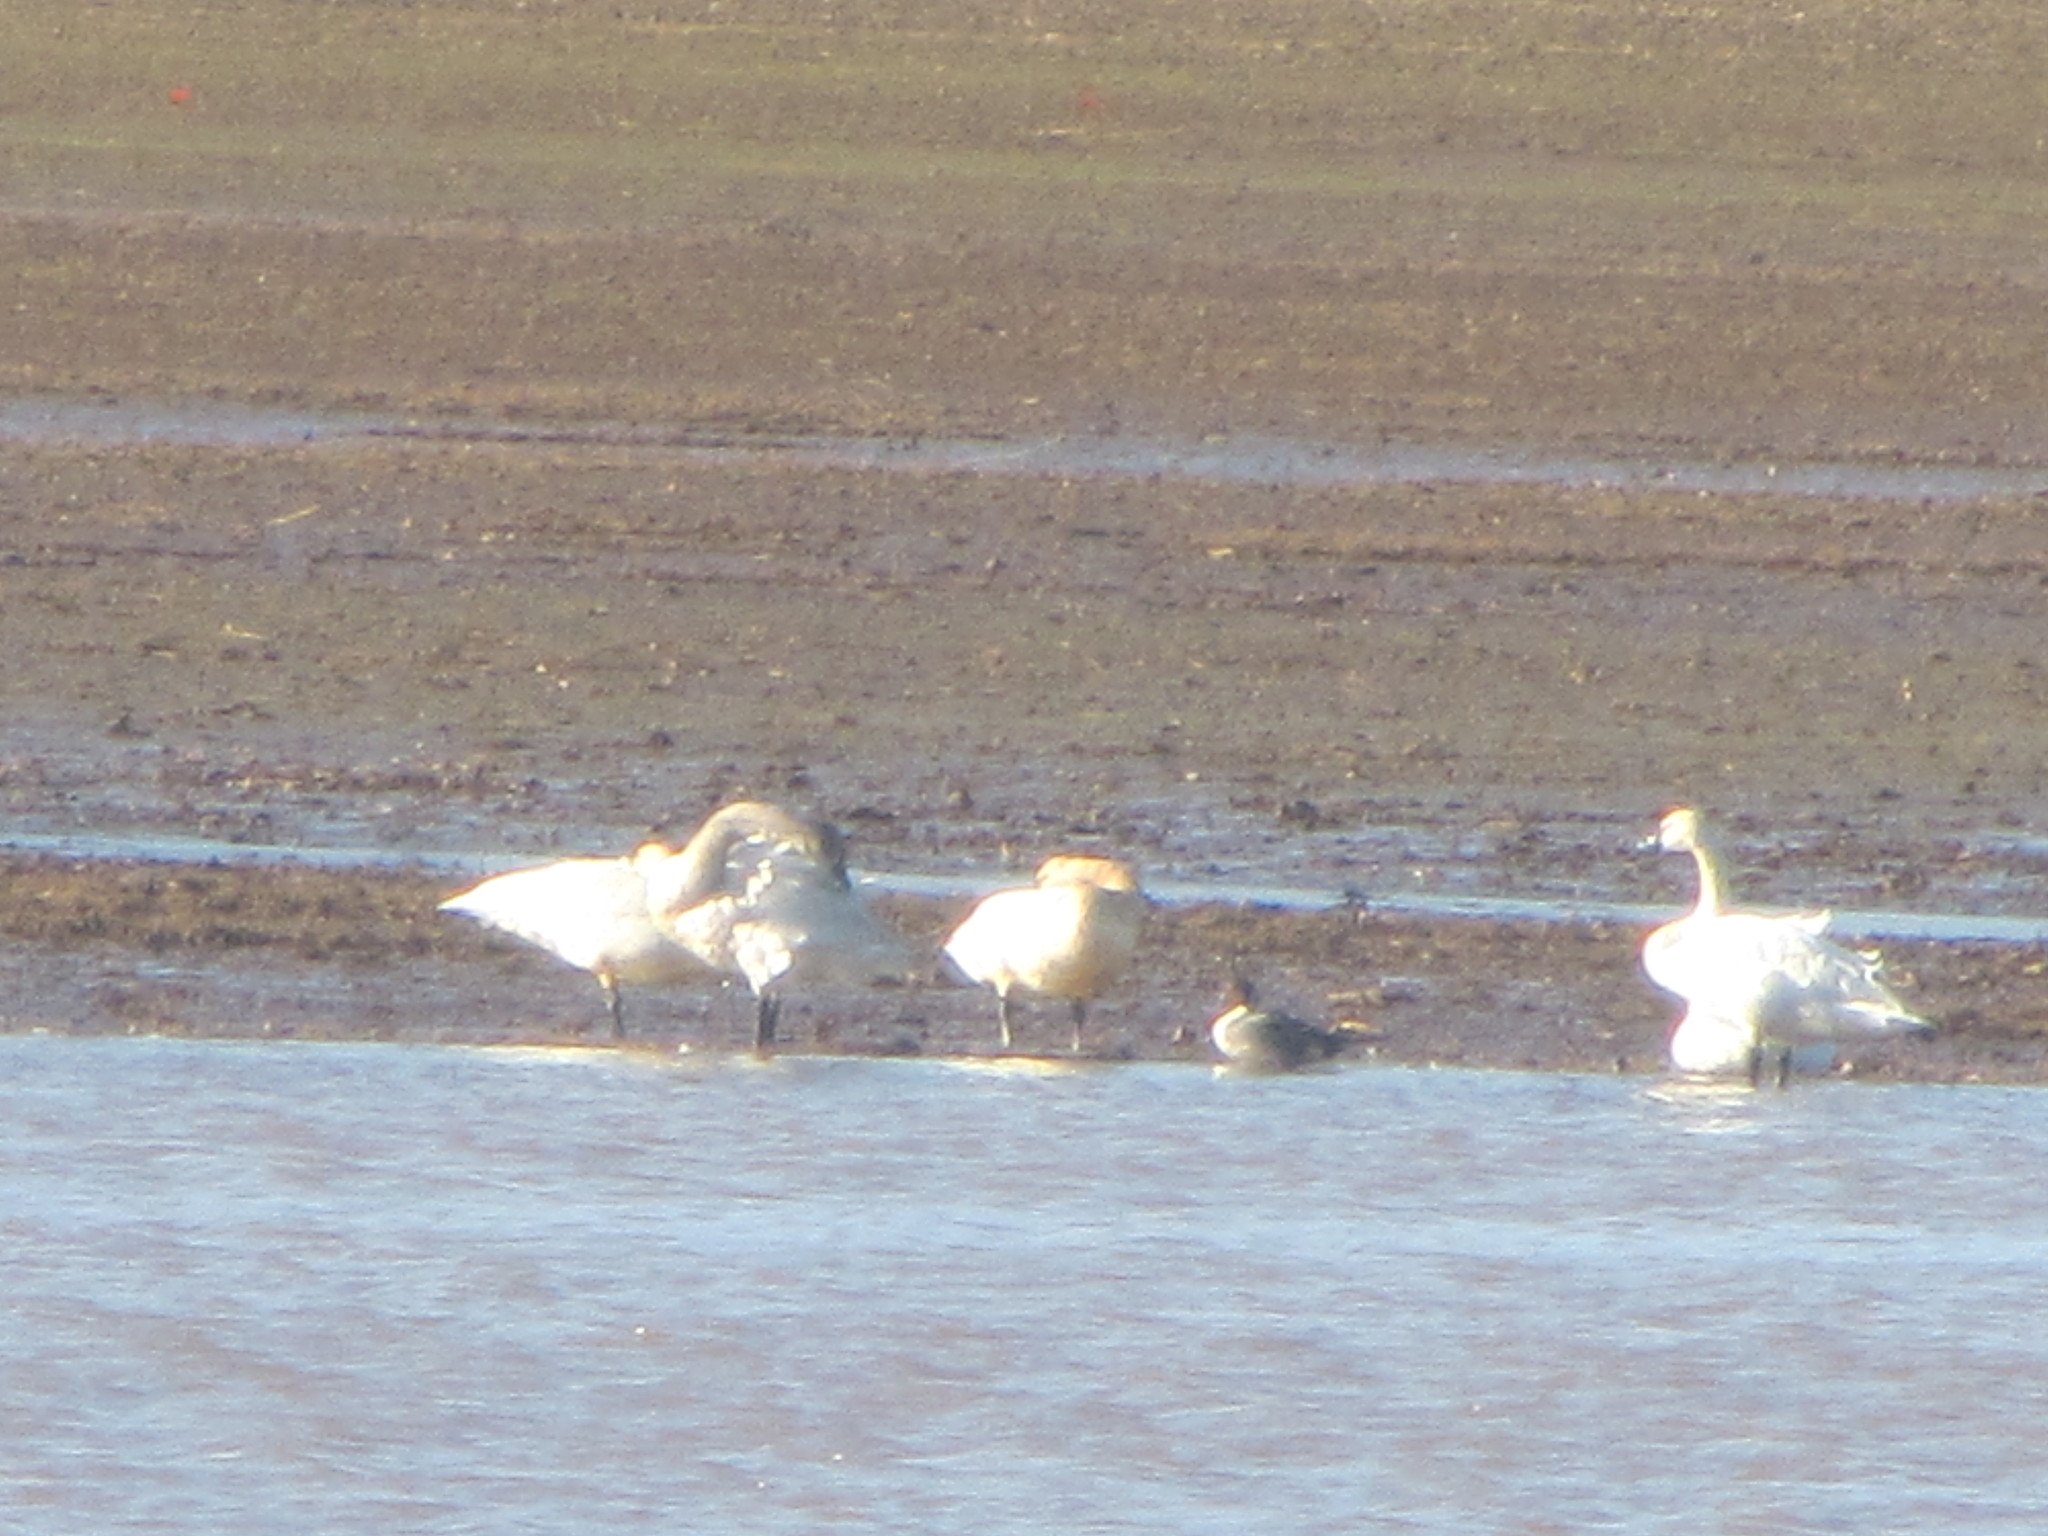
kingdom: Animalia
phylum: Chordata
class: Aves
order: Anseriformes
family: Anatidae
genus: Cygnus
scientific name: Cygnus columbianus
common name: Tundra swan
